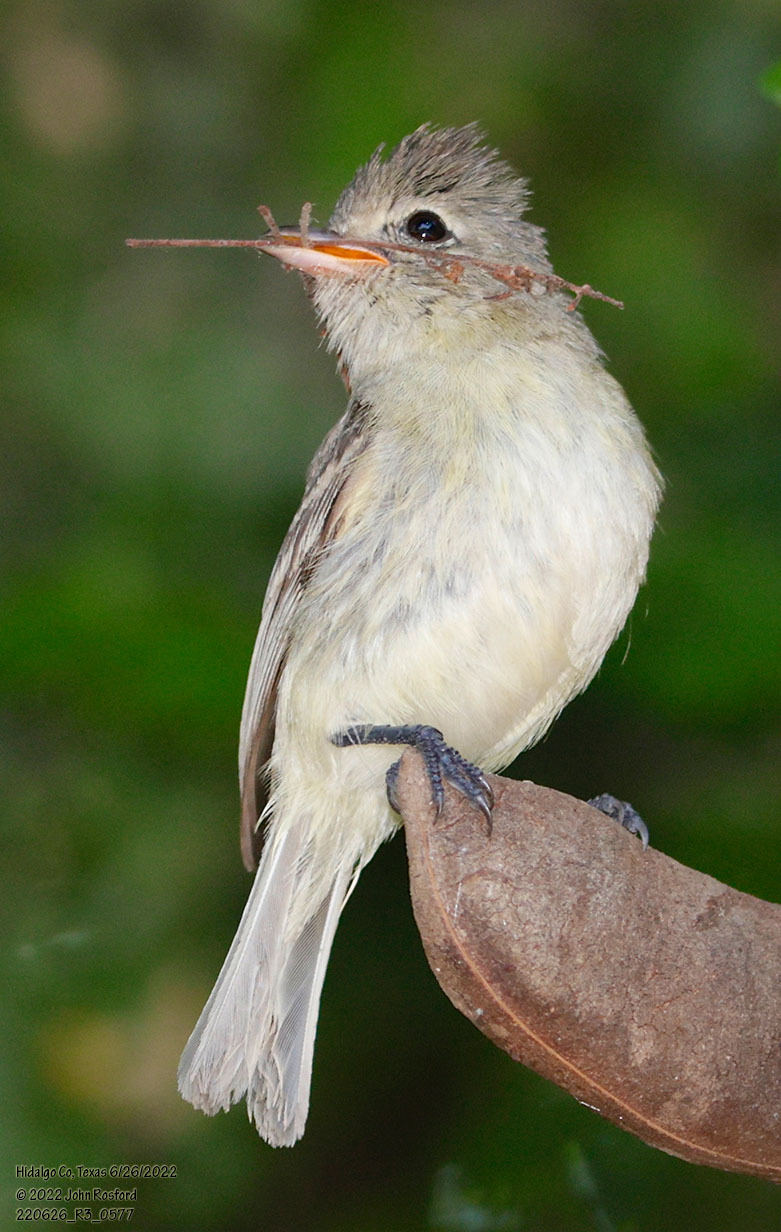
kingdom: Animalia
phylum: Chordata
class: Aves
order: Passeriformes
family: Tyrannidae
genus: Camptostoma
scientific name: Camptostoma imberbe
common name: Northern beardless-tyrannulet
